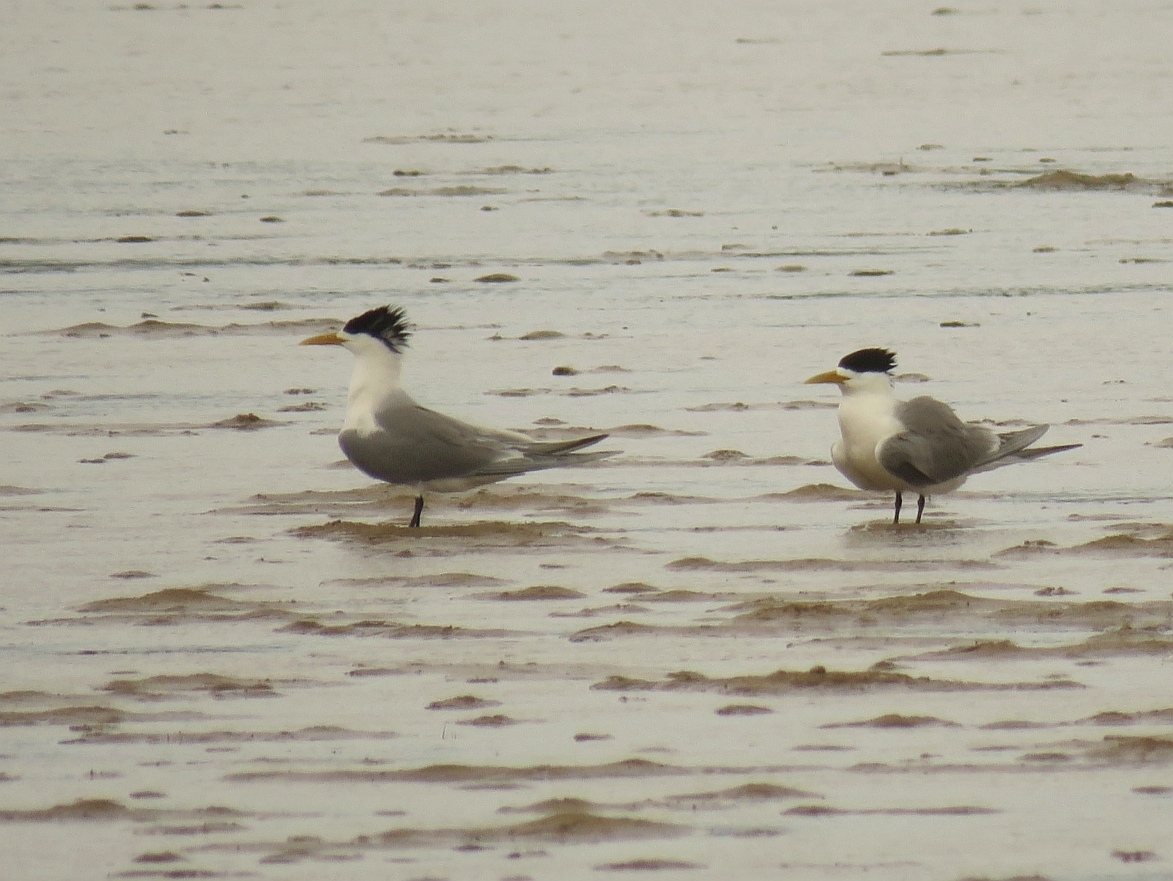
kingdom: Animalia
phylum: Chordata
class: Aves
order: Charadriiformes
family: Laridae
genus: Thalasseus
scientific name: Thalasseus bergii
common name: Greater crested tern
